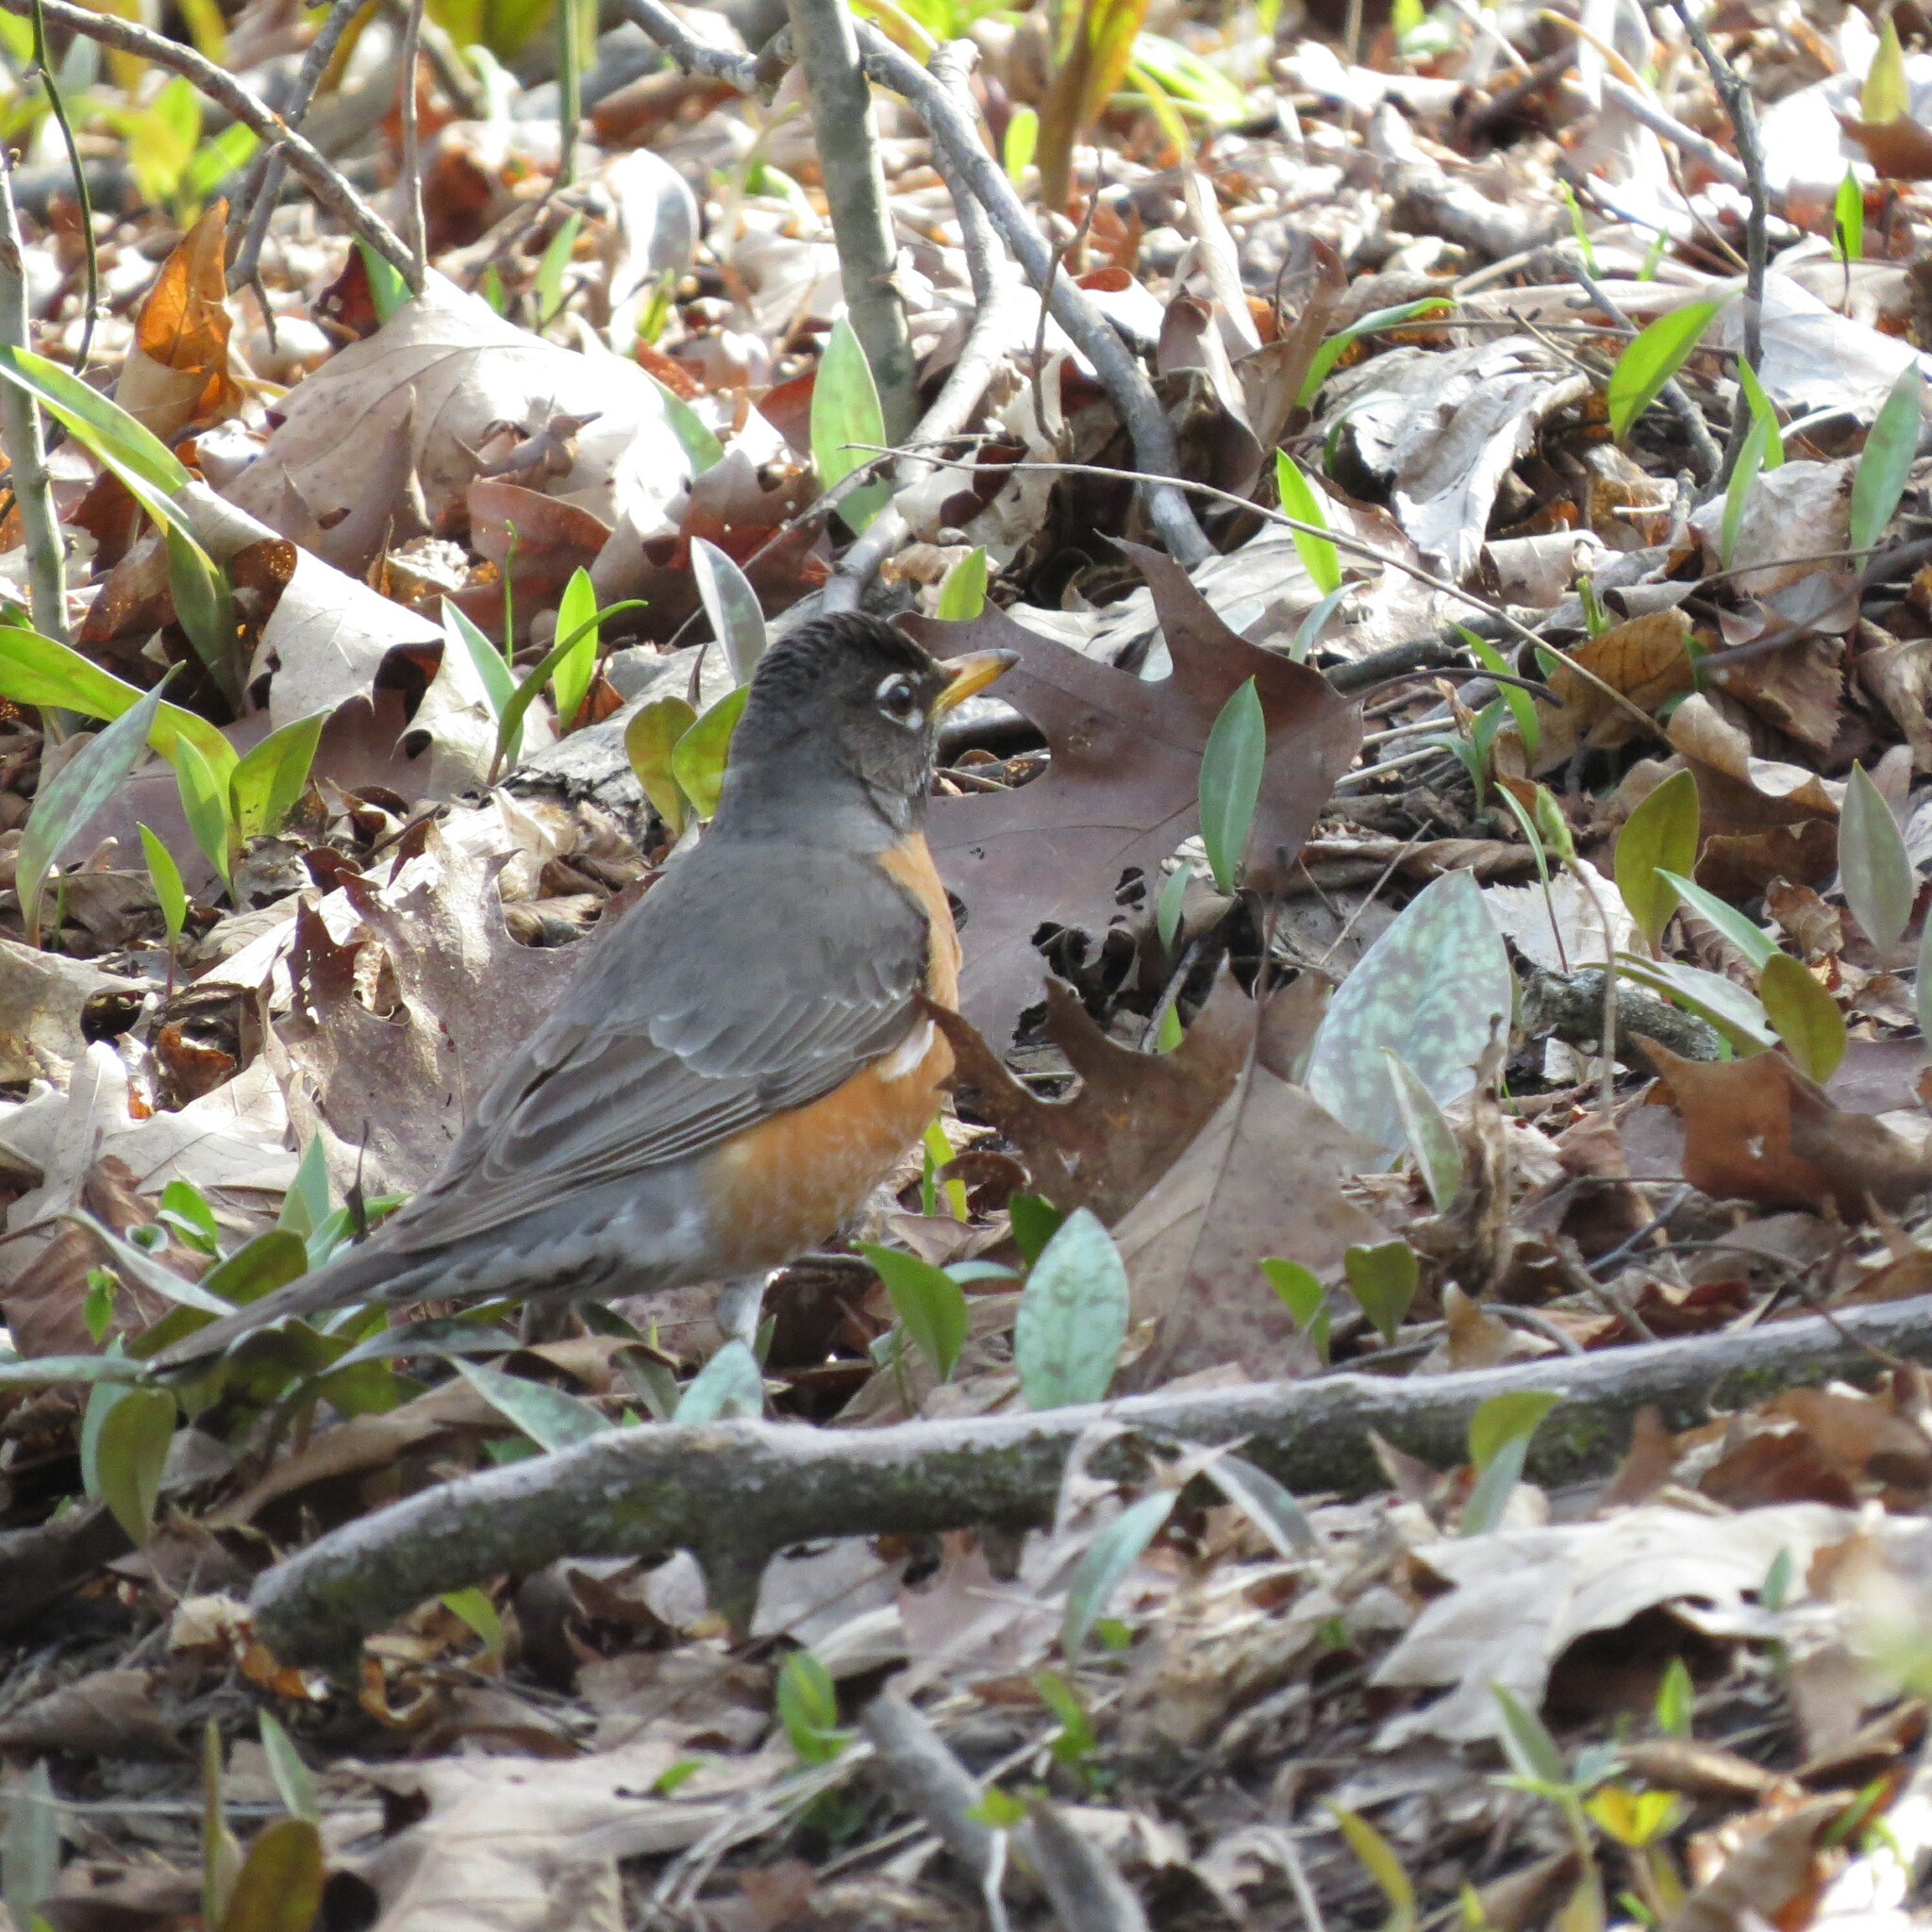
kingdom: Animalia
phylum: Chordata
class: Aves
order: Passeriformes
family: Turdidae
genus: Turdus
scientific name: Turdus migratorius
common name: American robin
